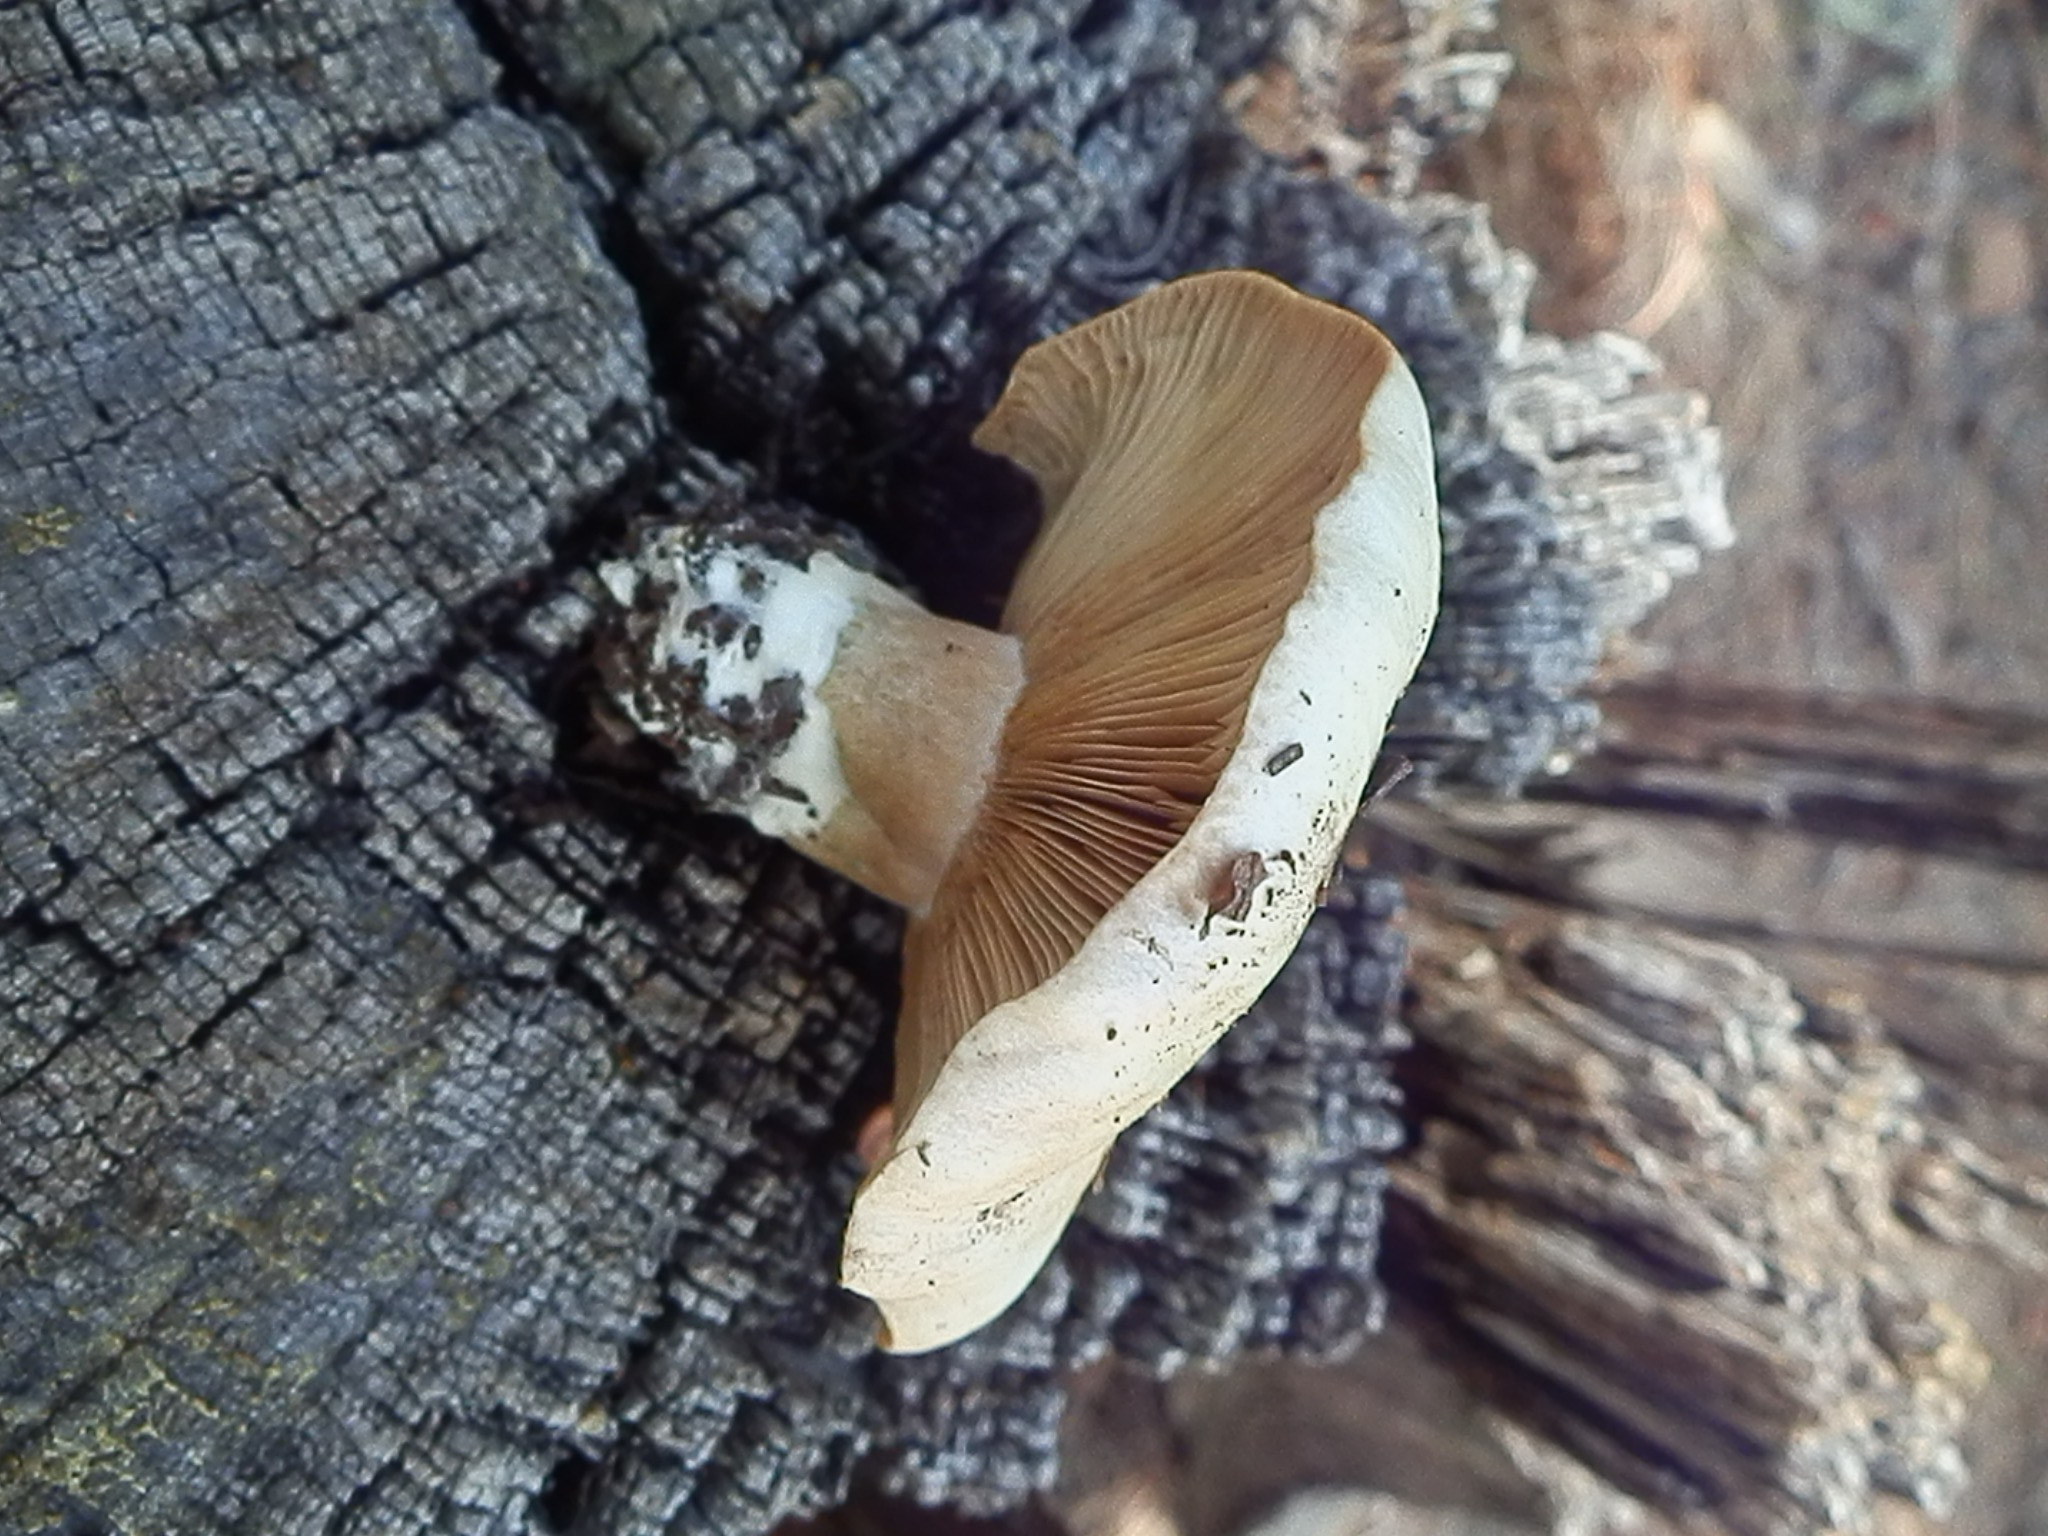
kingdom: Fungi
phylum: Basidiomycota
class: Agaricomycetes
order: Russulales
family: Russulaceae
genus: Lactarius
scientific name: Lactarius deterrimus
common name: False saffron milkcap
